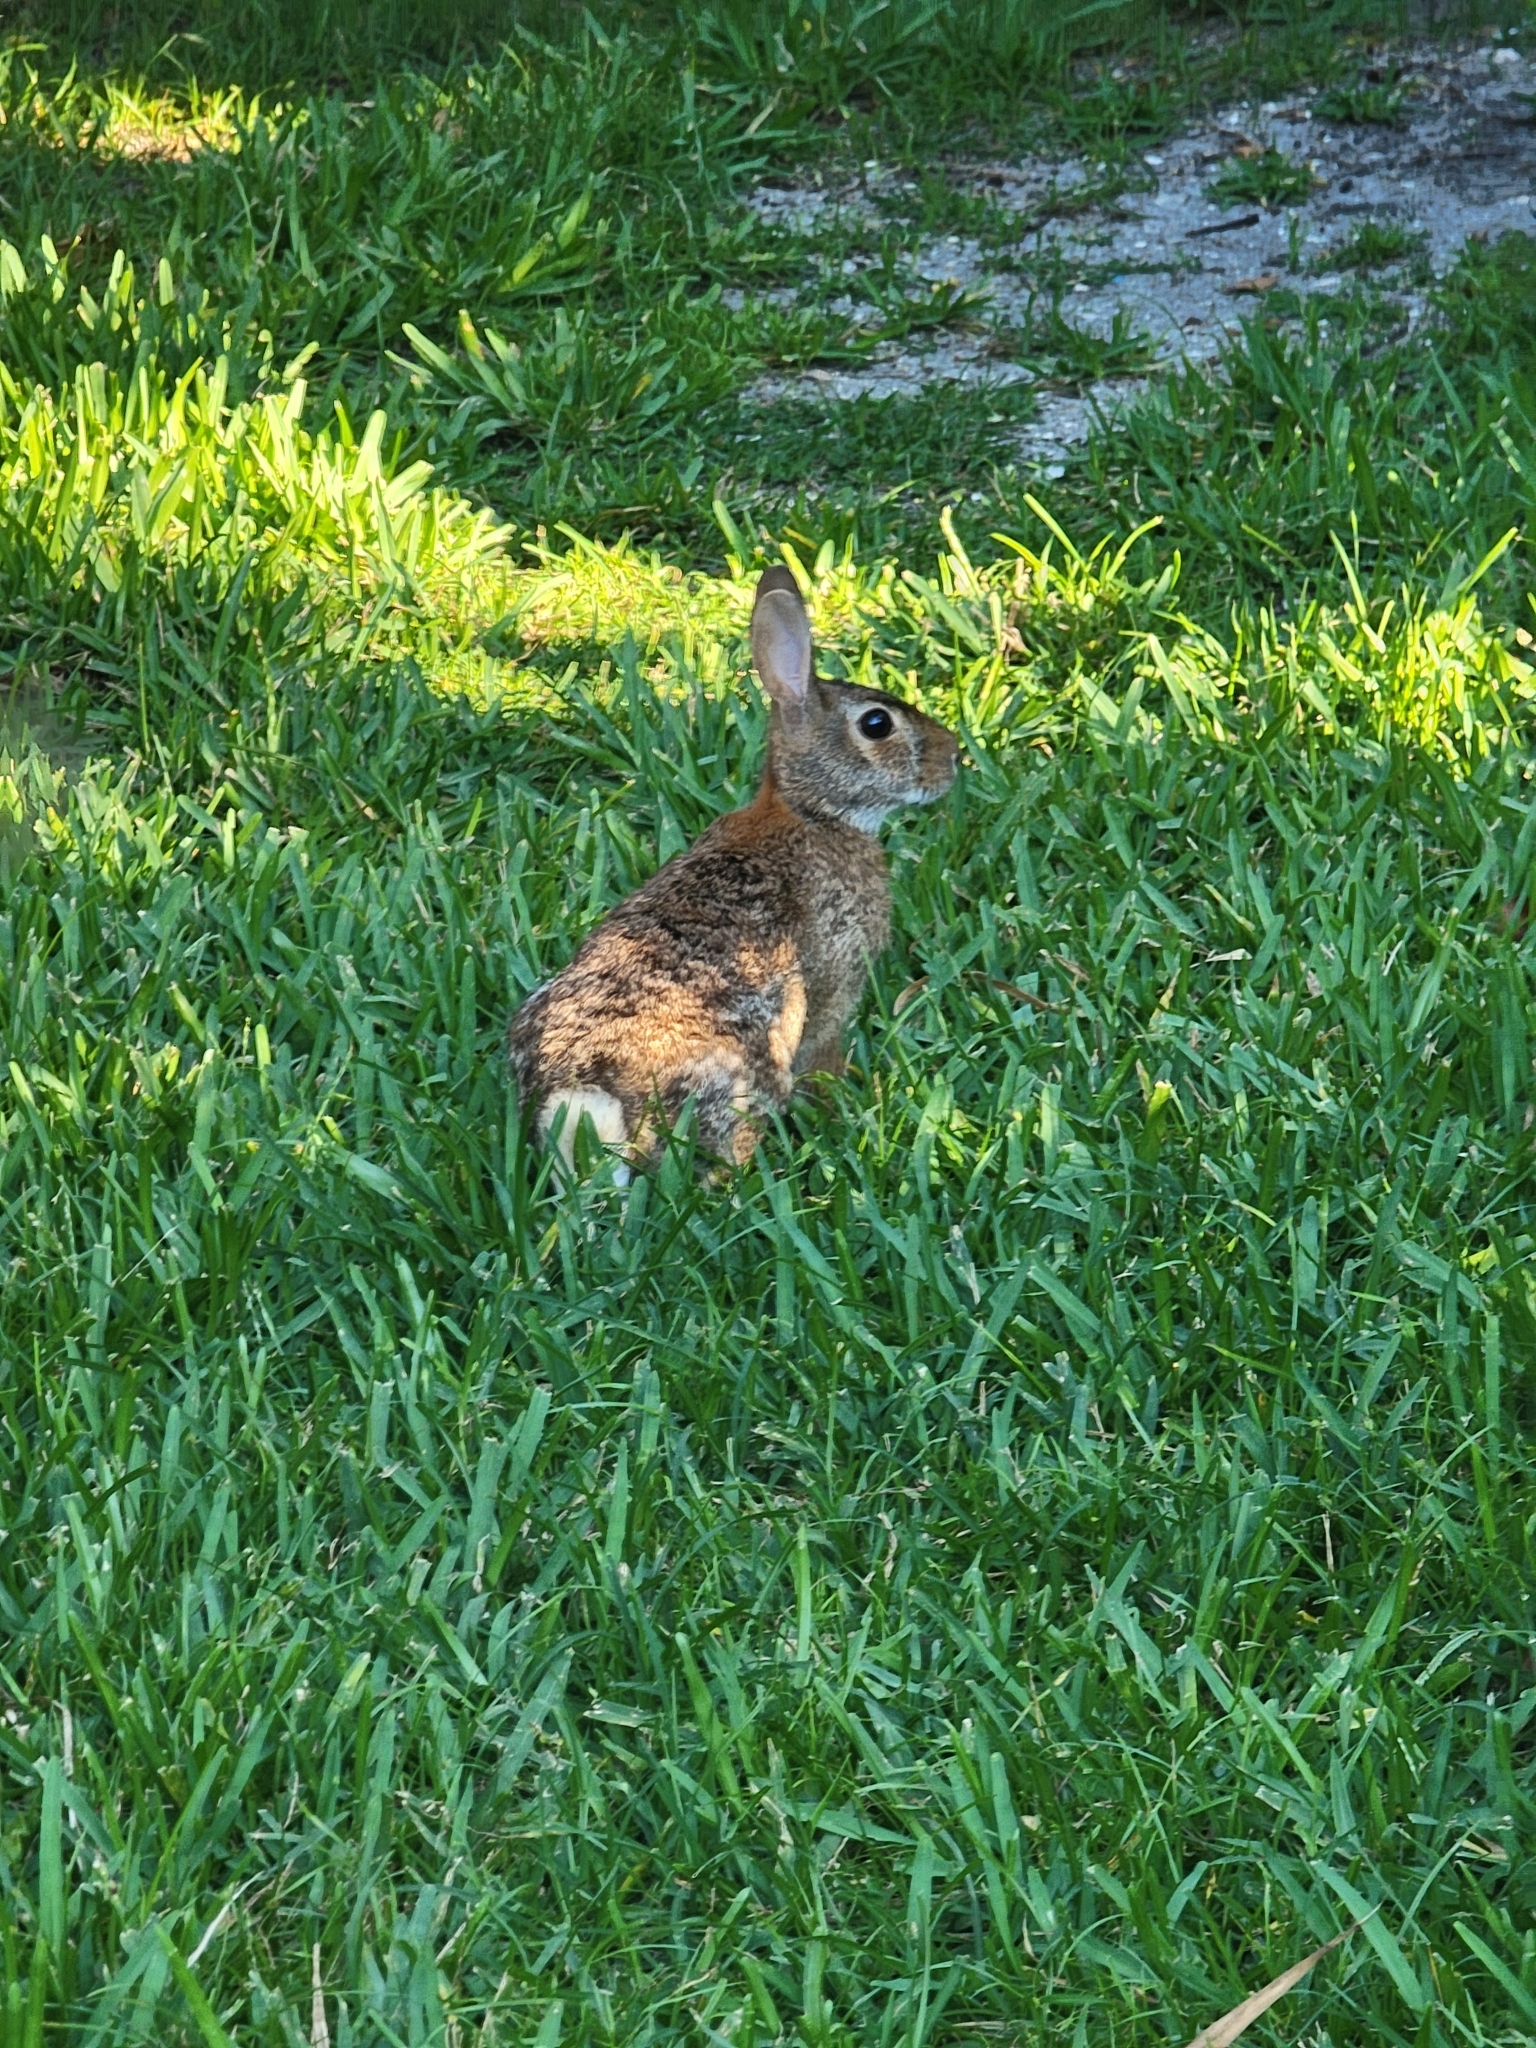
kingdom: Animalia
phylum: Chordata
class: Mammalia
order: Lagomorpha
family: Leporidae
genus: Sylvilagus
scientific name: Sylvilagus floridanus
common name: Eastern cottontail
